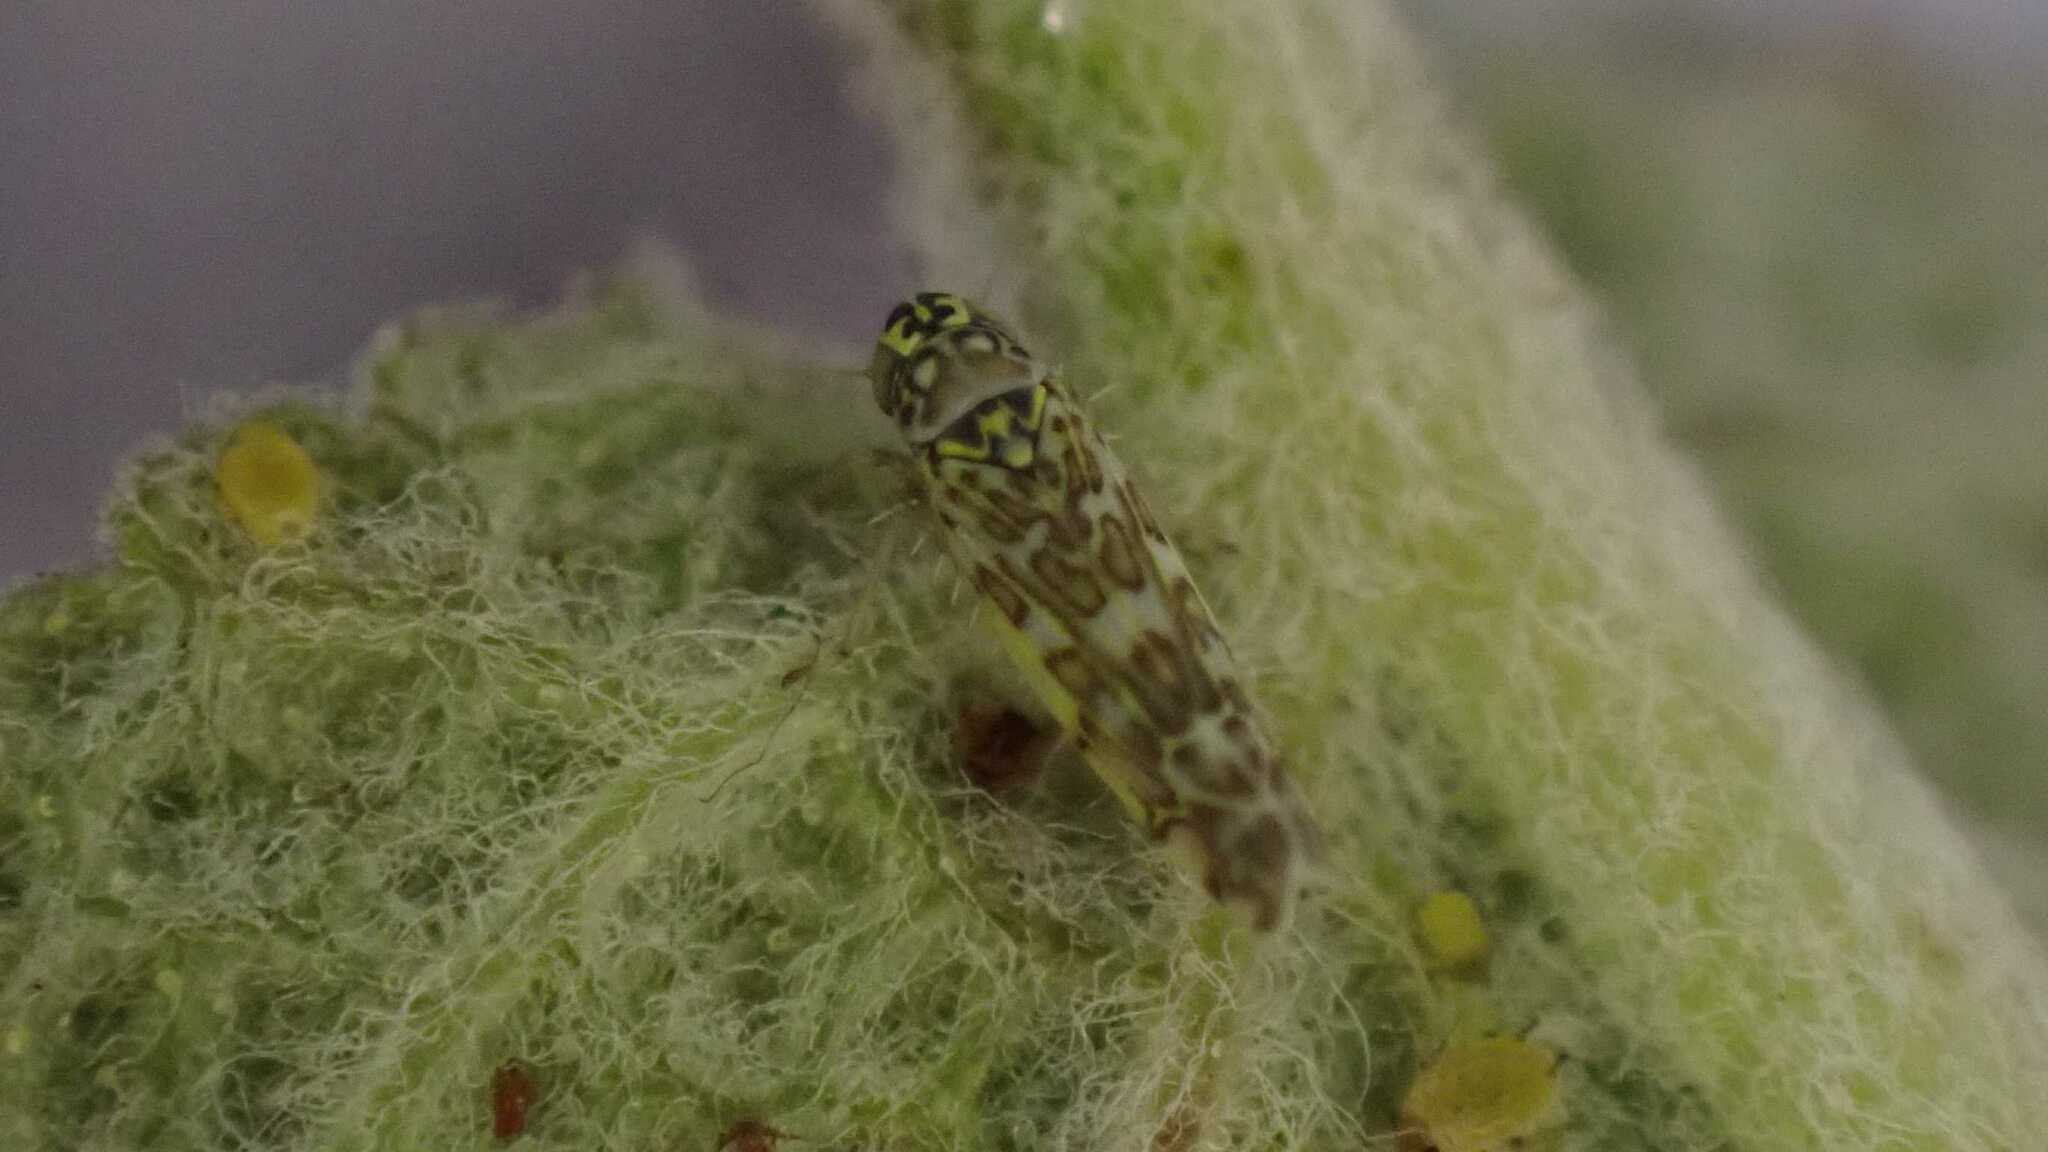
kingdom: Animalia
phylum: Arthropoda
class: Insecta
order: Hemiptera
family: Cicadellidae
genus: Eupteryx
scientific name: Eupteryx decemnotata
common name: Ligurian leafhopper
